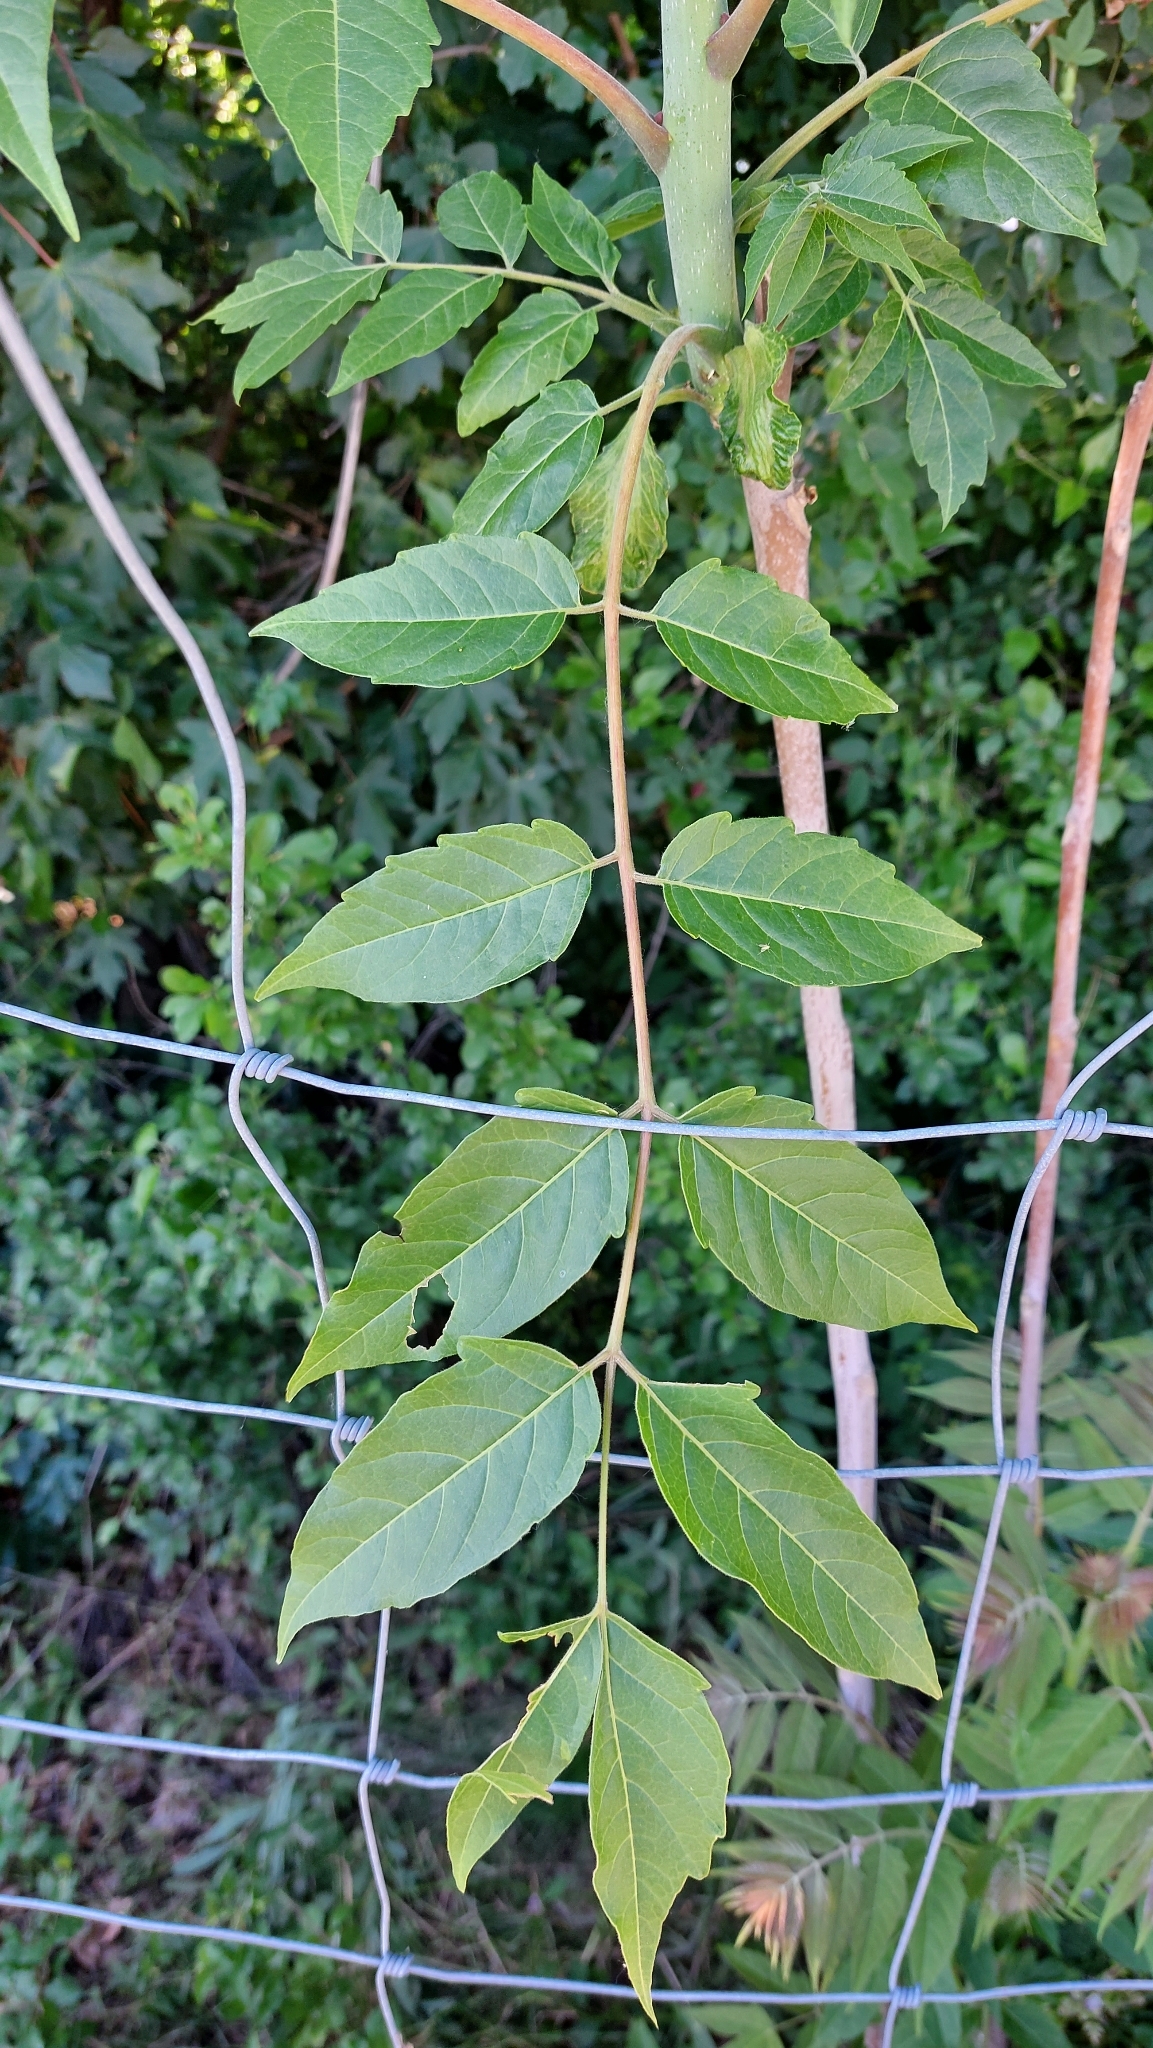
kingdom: Plantae
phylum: Tracheophyta
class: Magnoliopsida
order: Sapindales
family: Simaroubaceae
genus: Ailanthus
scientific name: Ailanthus altissima
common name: Tree-of-heaven
